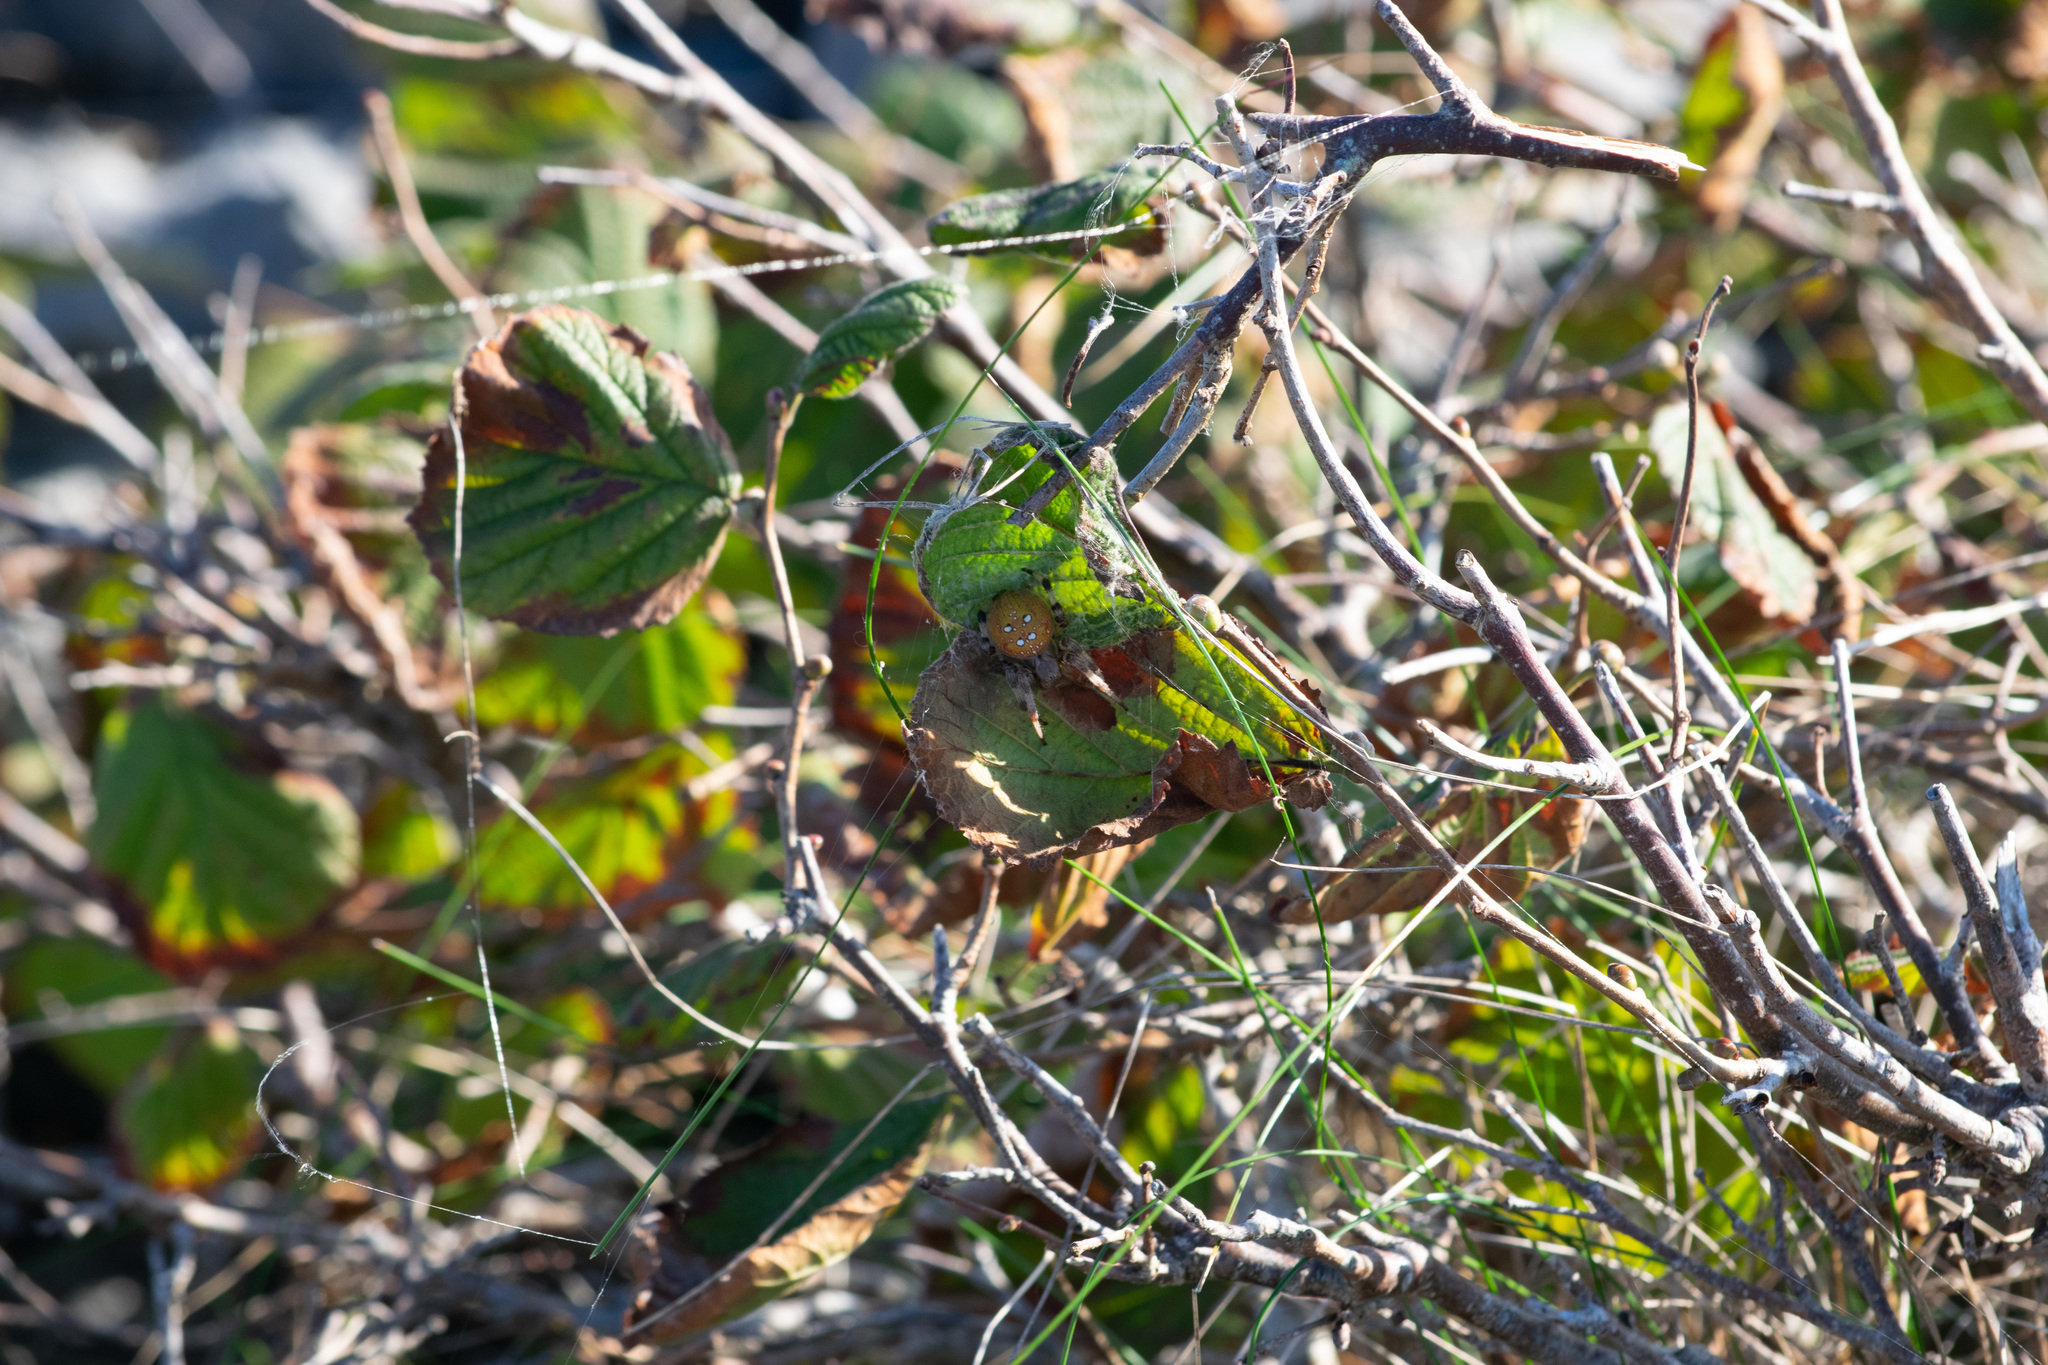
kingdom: Animalia
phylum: Arthropoda
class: Arachnida
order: Araneae
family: Araneidae
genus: Araneus
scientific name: Araneus quadratus
